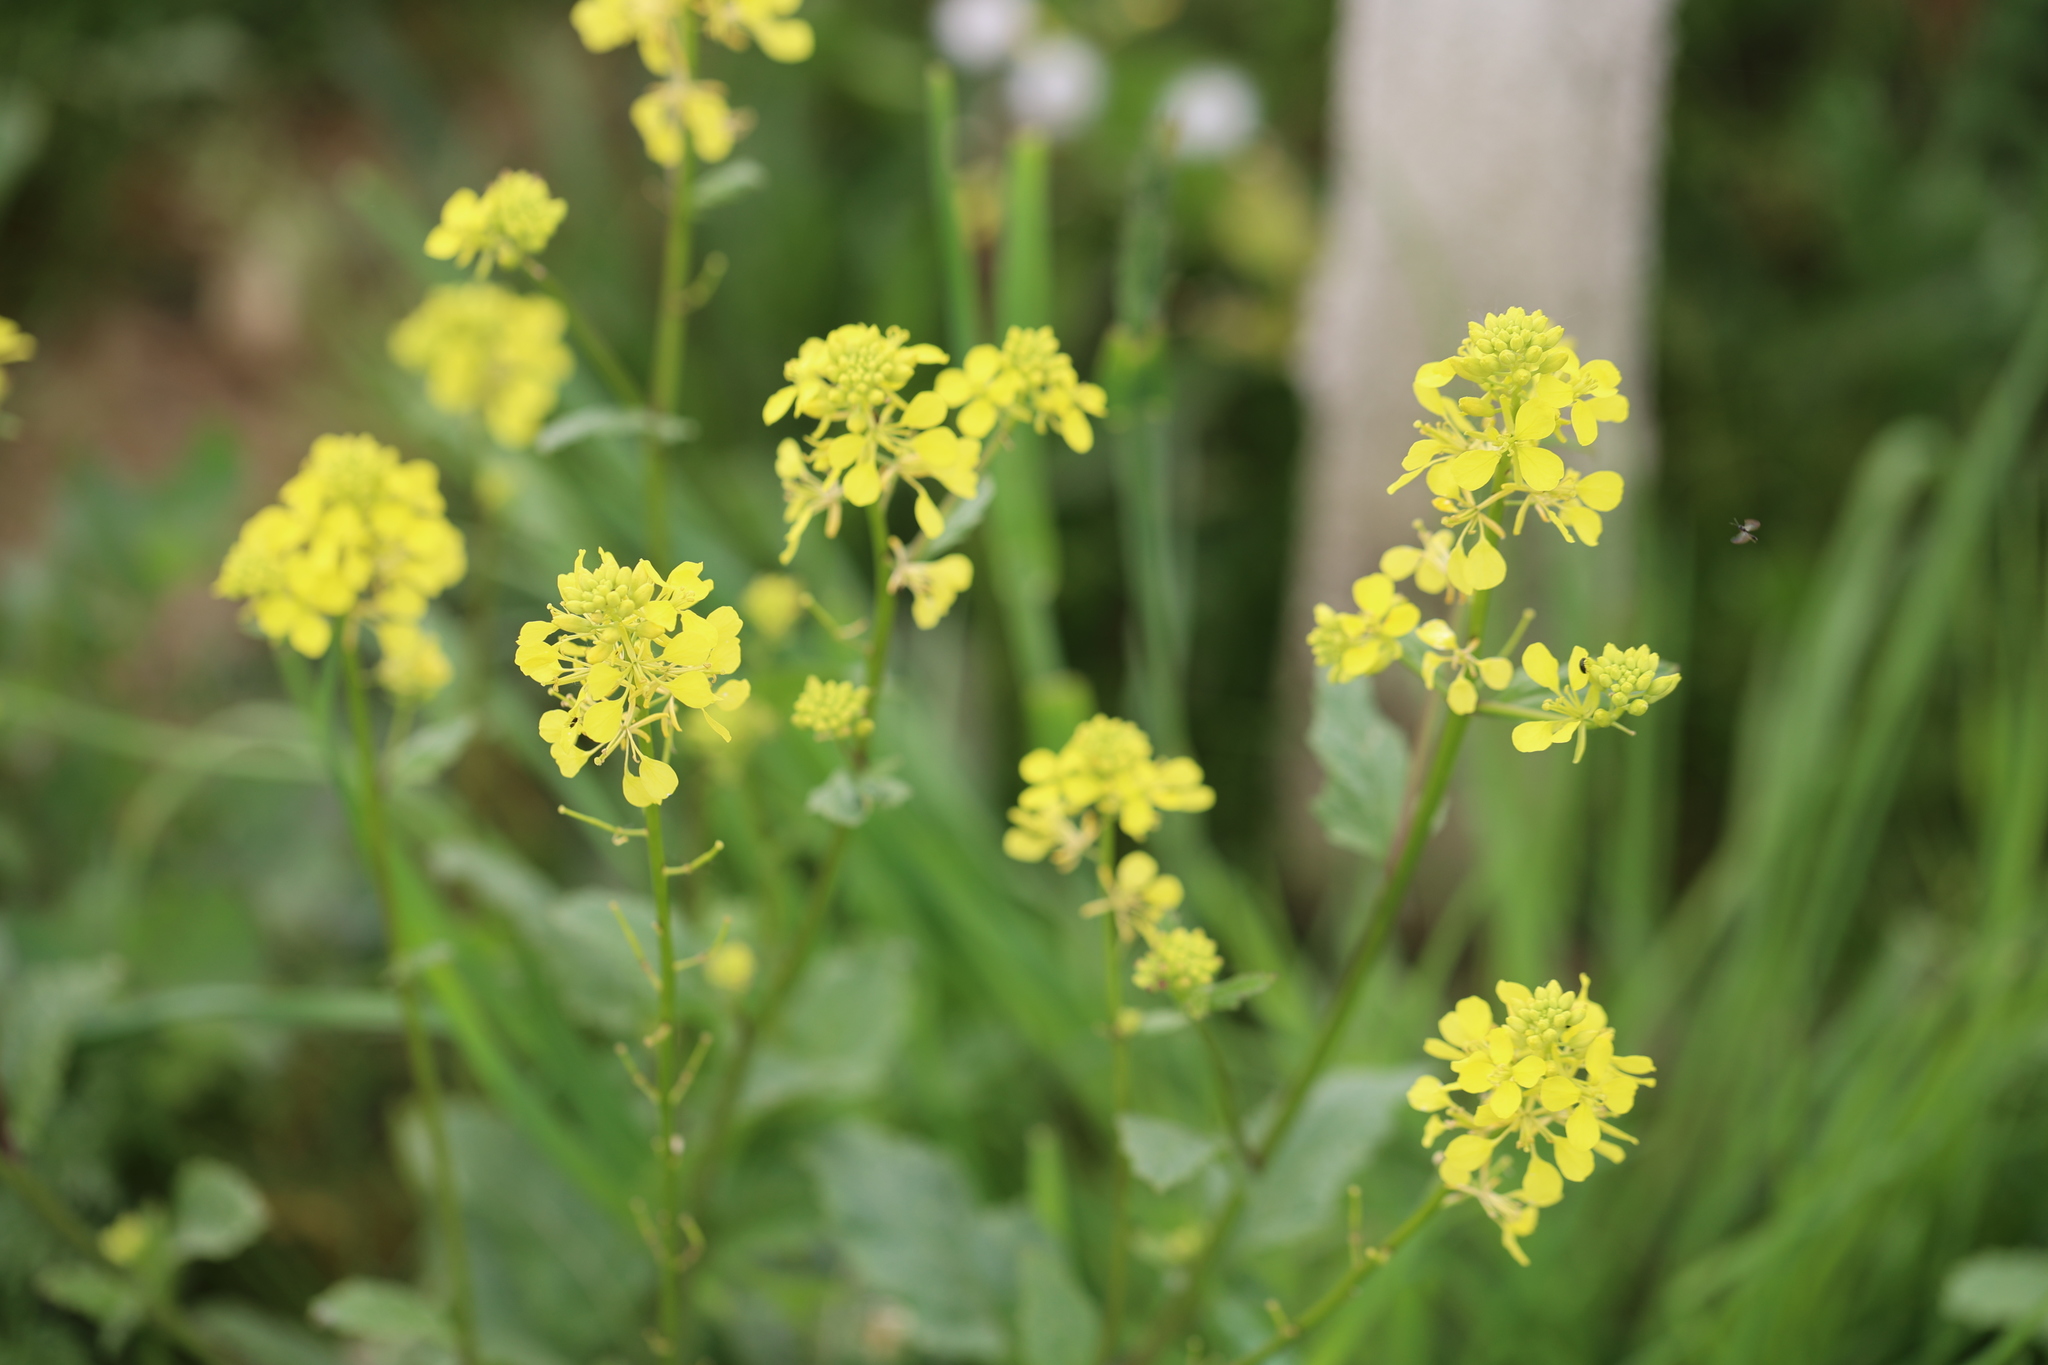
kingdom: Plantae
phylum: Tracheophyta
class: Magnoliopsida
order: Brassicales
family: Brassicaceae
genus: Sinapis
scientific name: Sinapis arvensis
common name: Charlock
